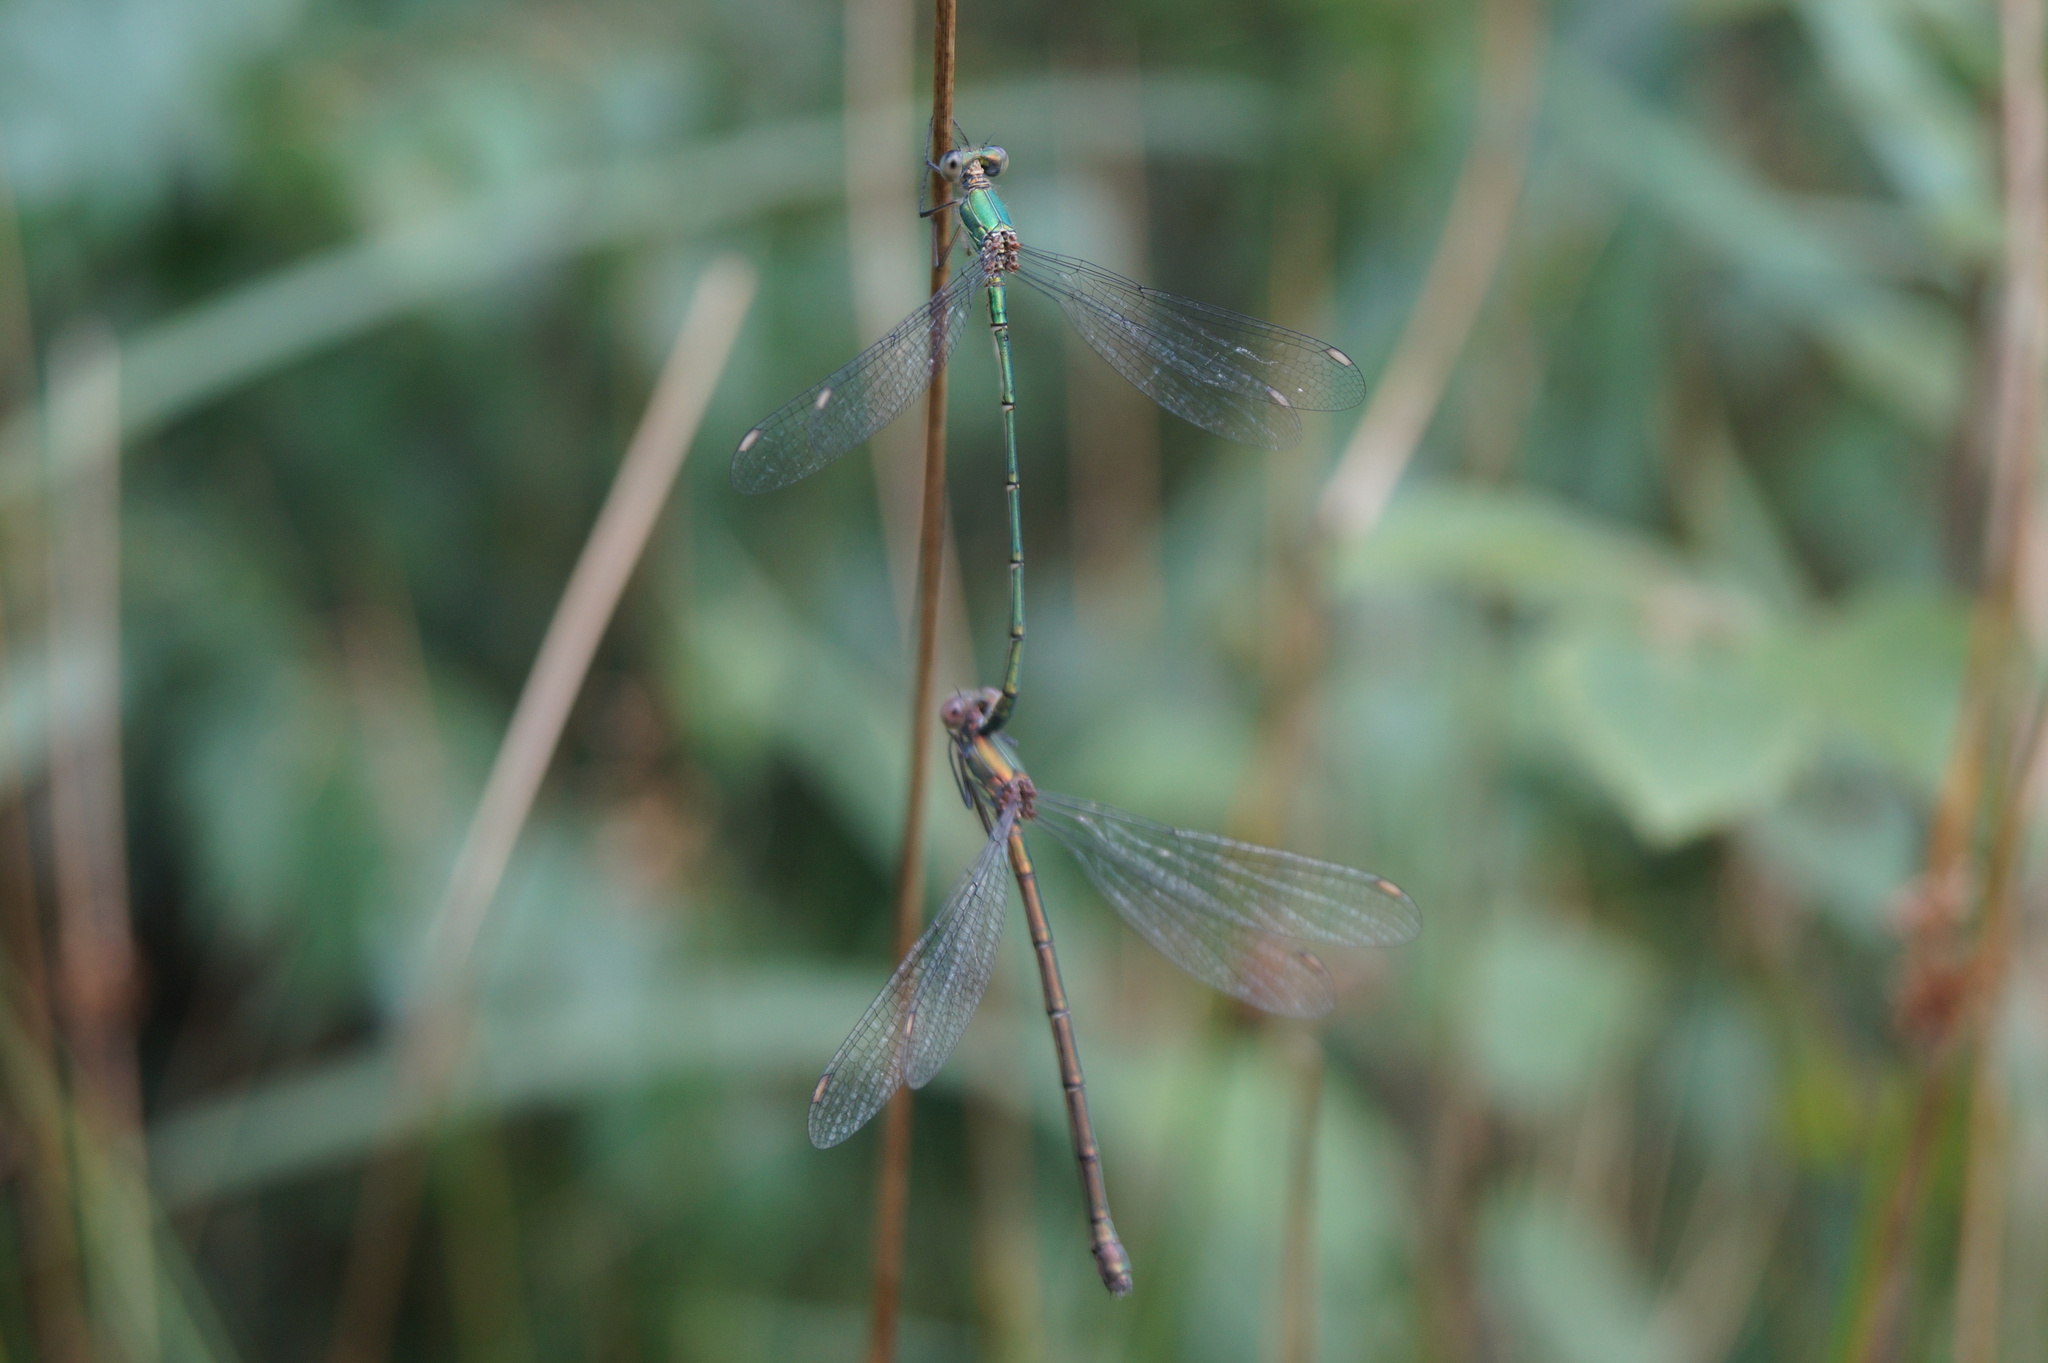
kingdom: Animalia
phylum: Arthropoda
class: Insecta
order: Odonata
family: Lestidae
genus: Chalcolestes
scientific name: Chalcolestes viridis
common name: Green emerald damselfly
